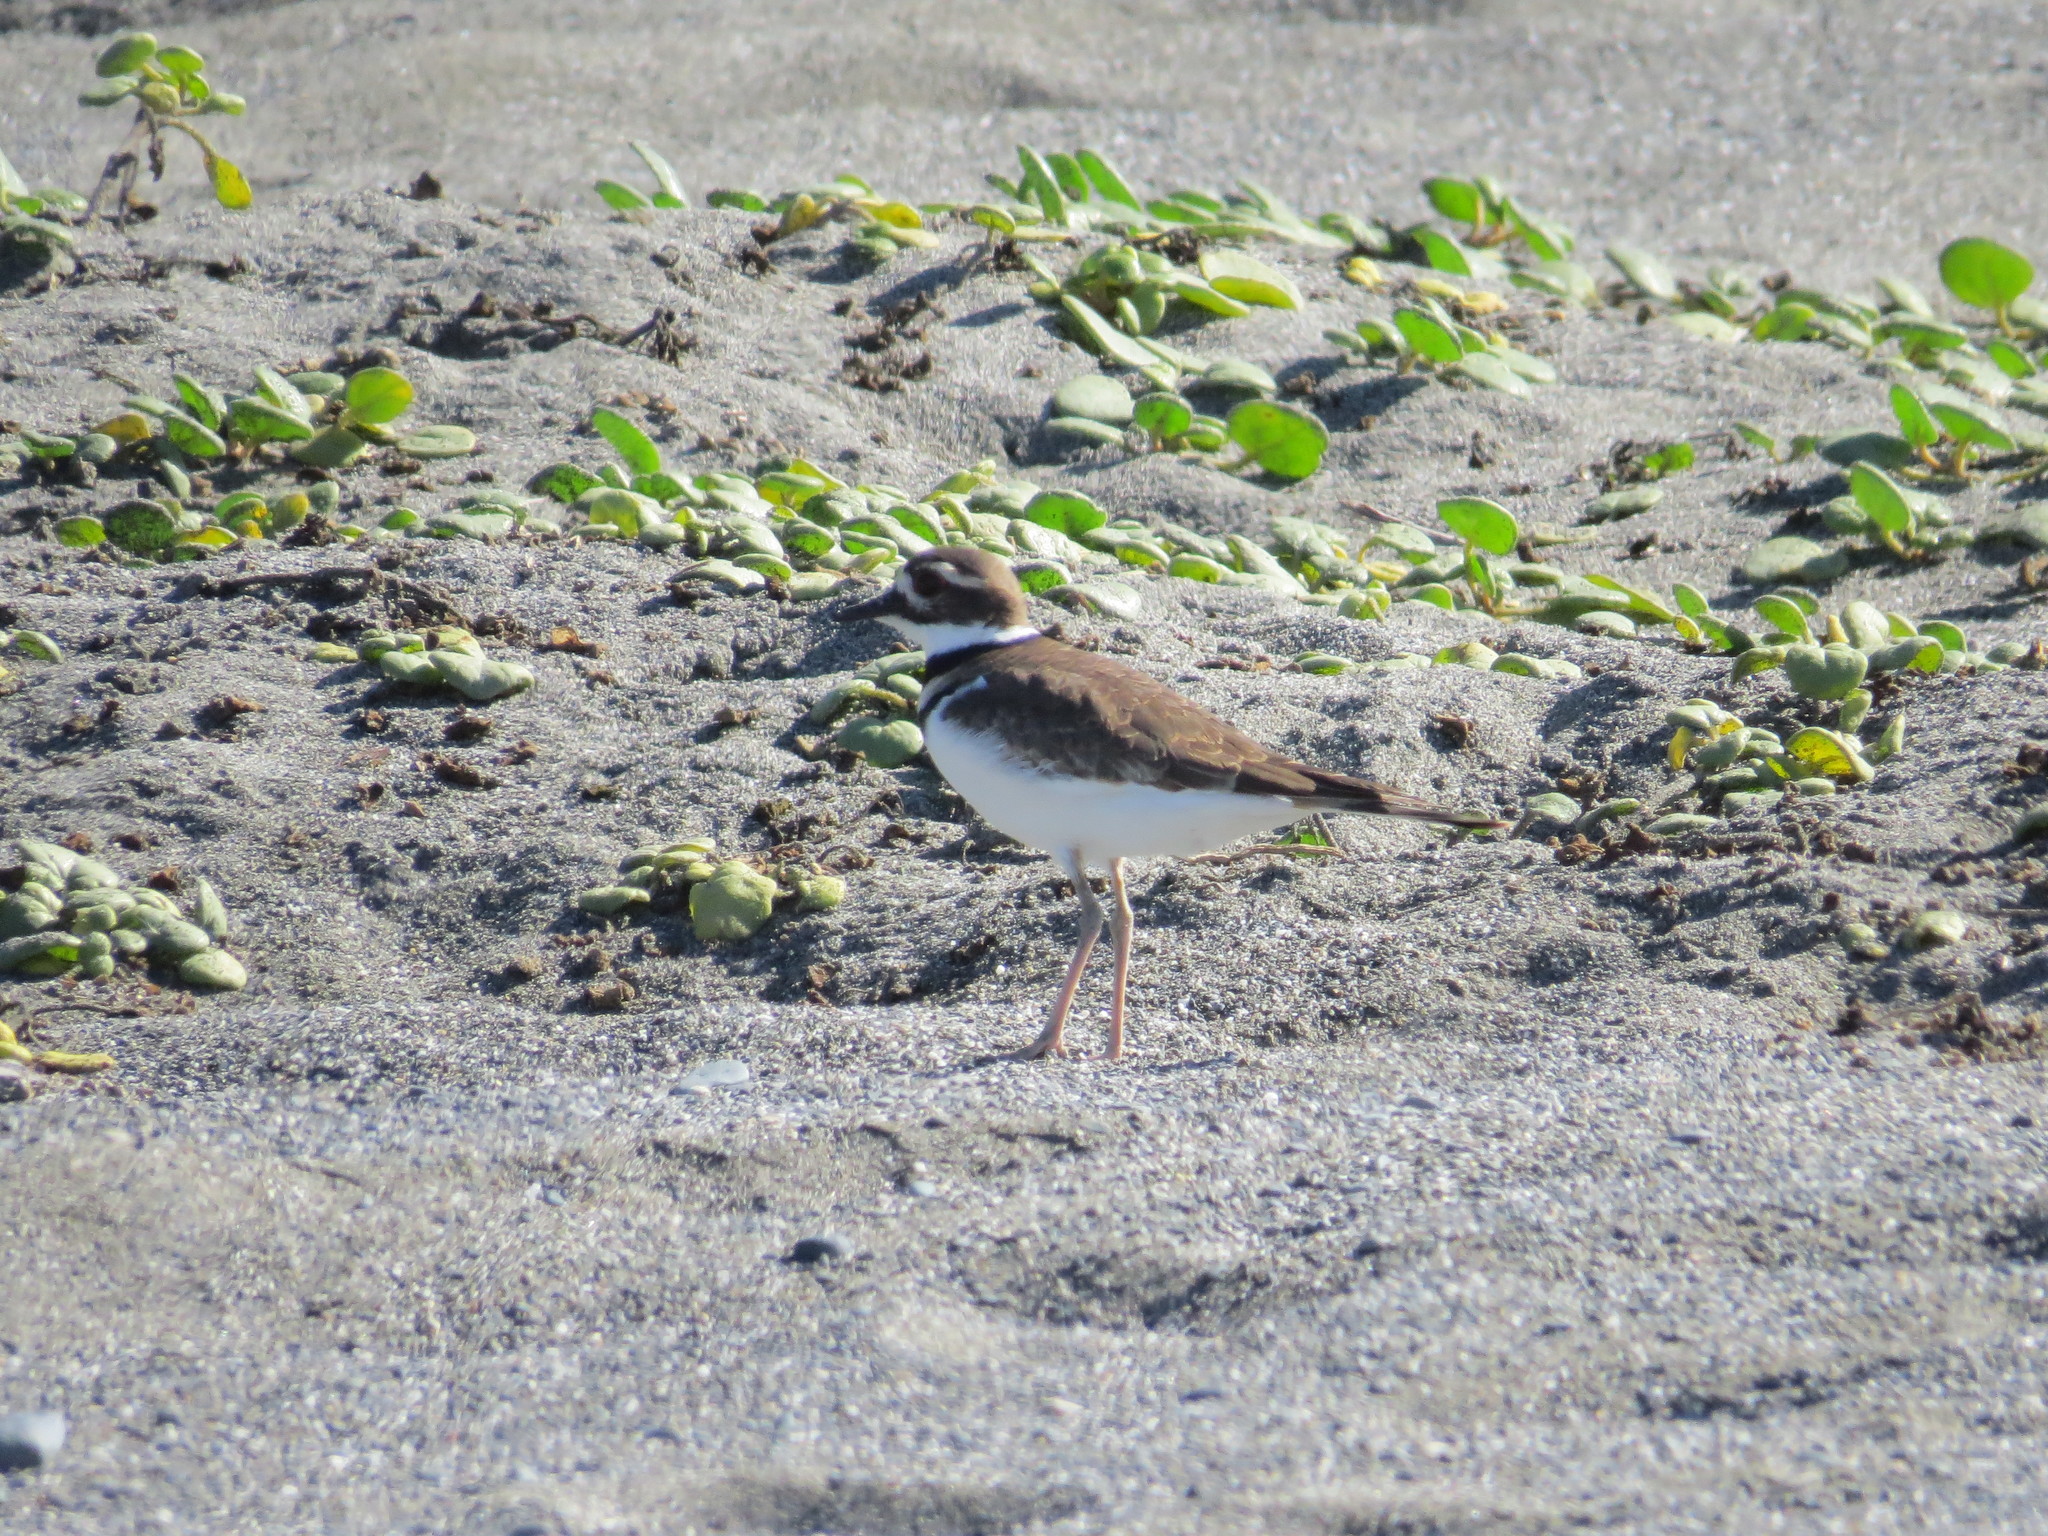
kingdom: Animalia
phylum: Chordata
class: Aves
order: Charadriiformes
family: Charadriidae
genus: Charadrius
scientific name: Charadrius vociferus
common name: Killdeer
